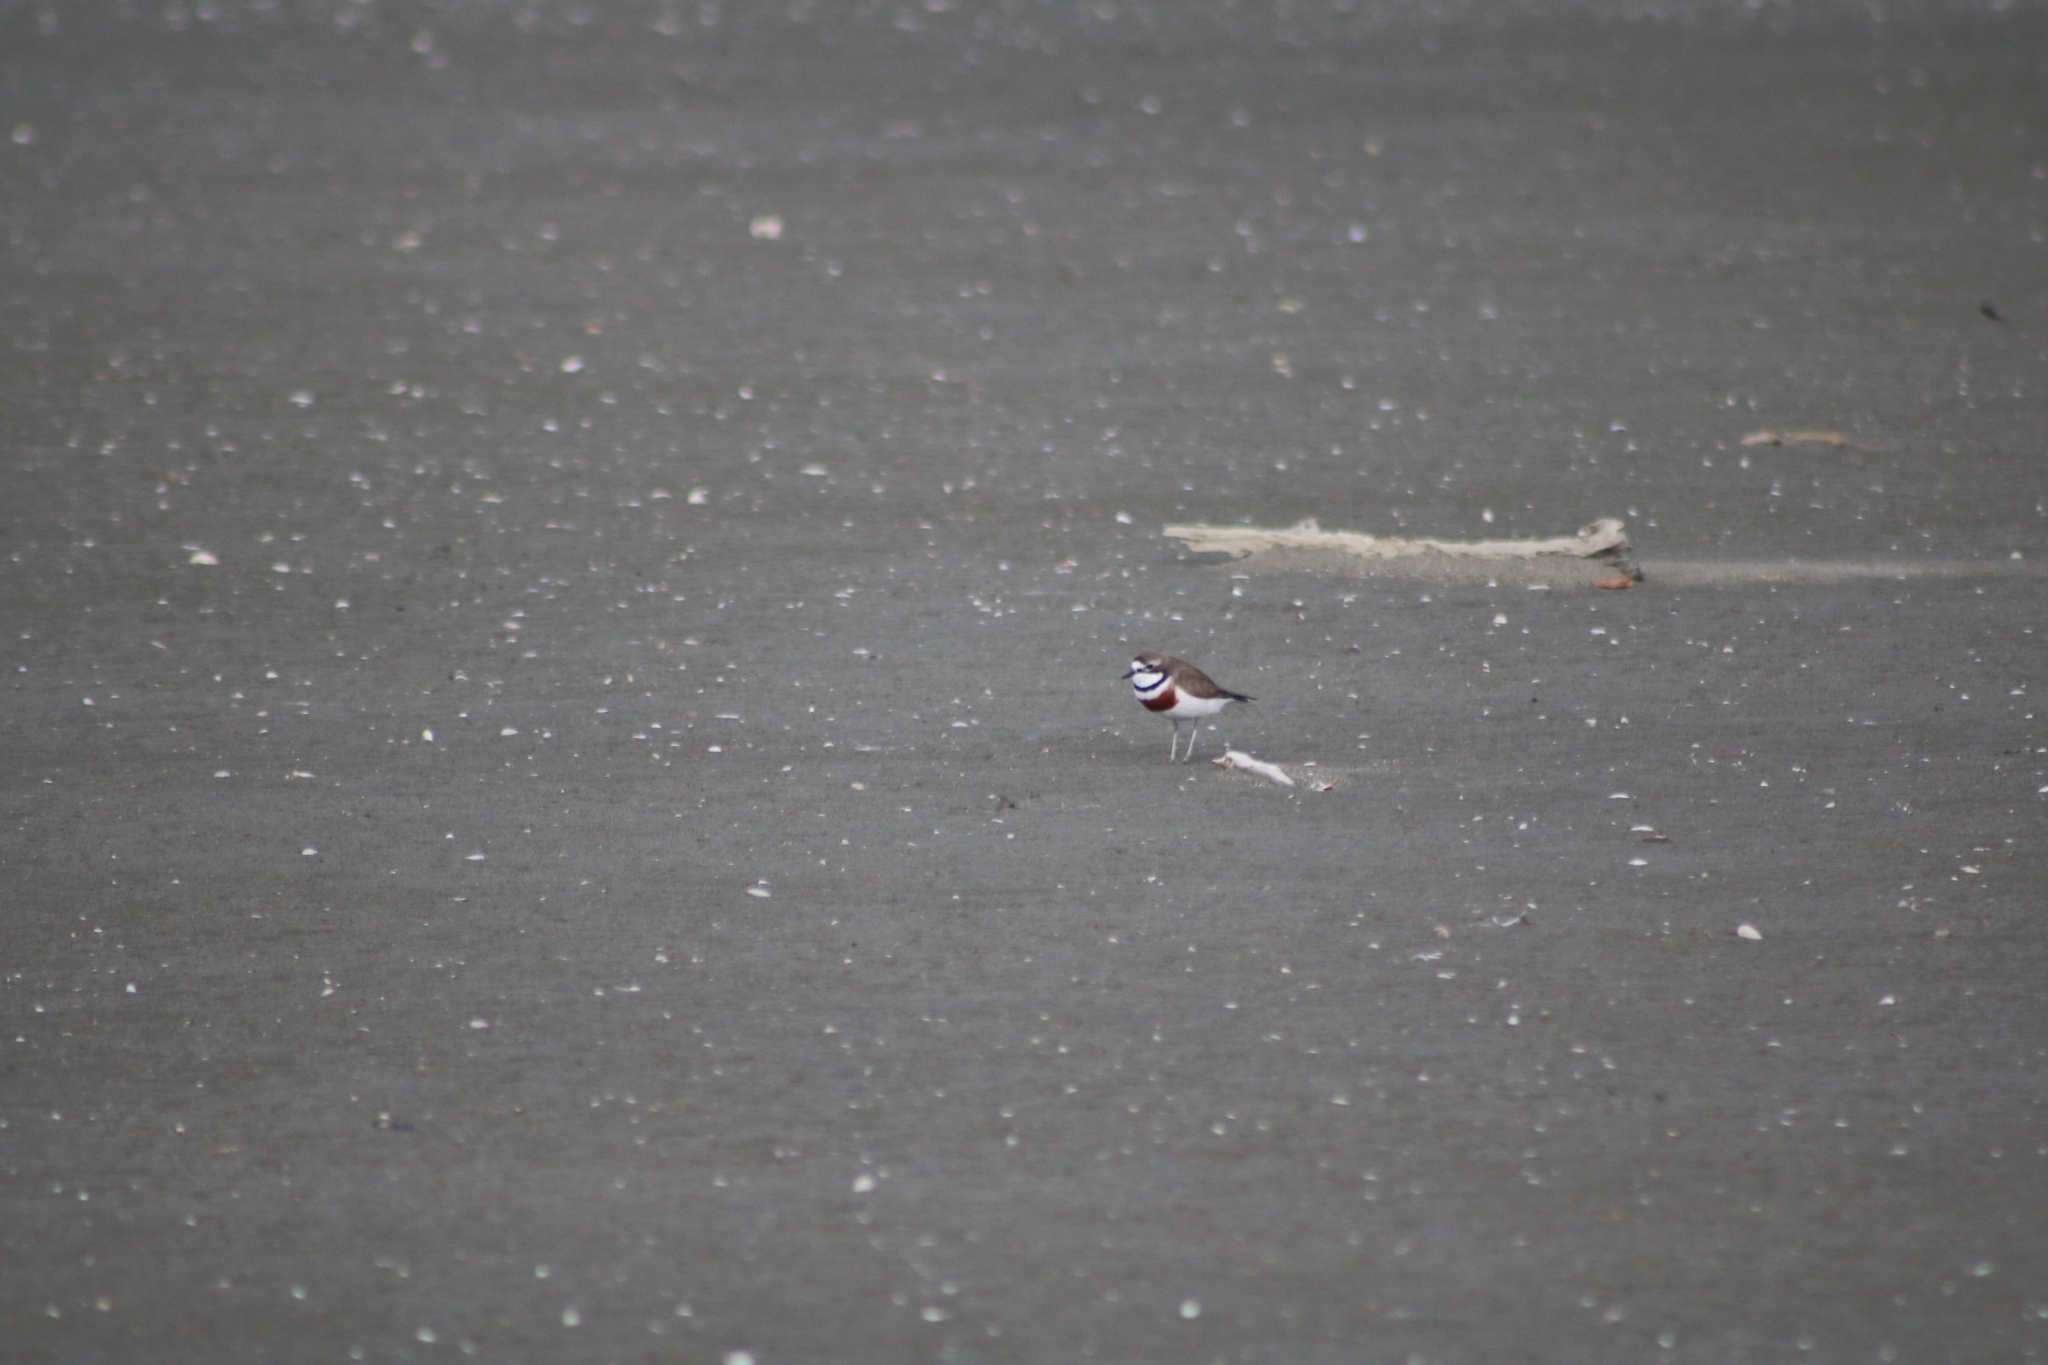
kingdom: Animalia
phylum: Chordata
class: Aves
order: Charadriiformes
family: Charadriidae
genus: Anarhynchus
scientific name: Anarhynchus
